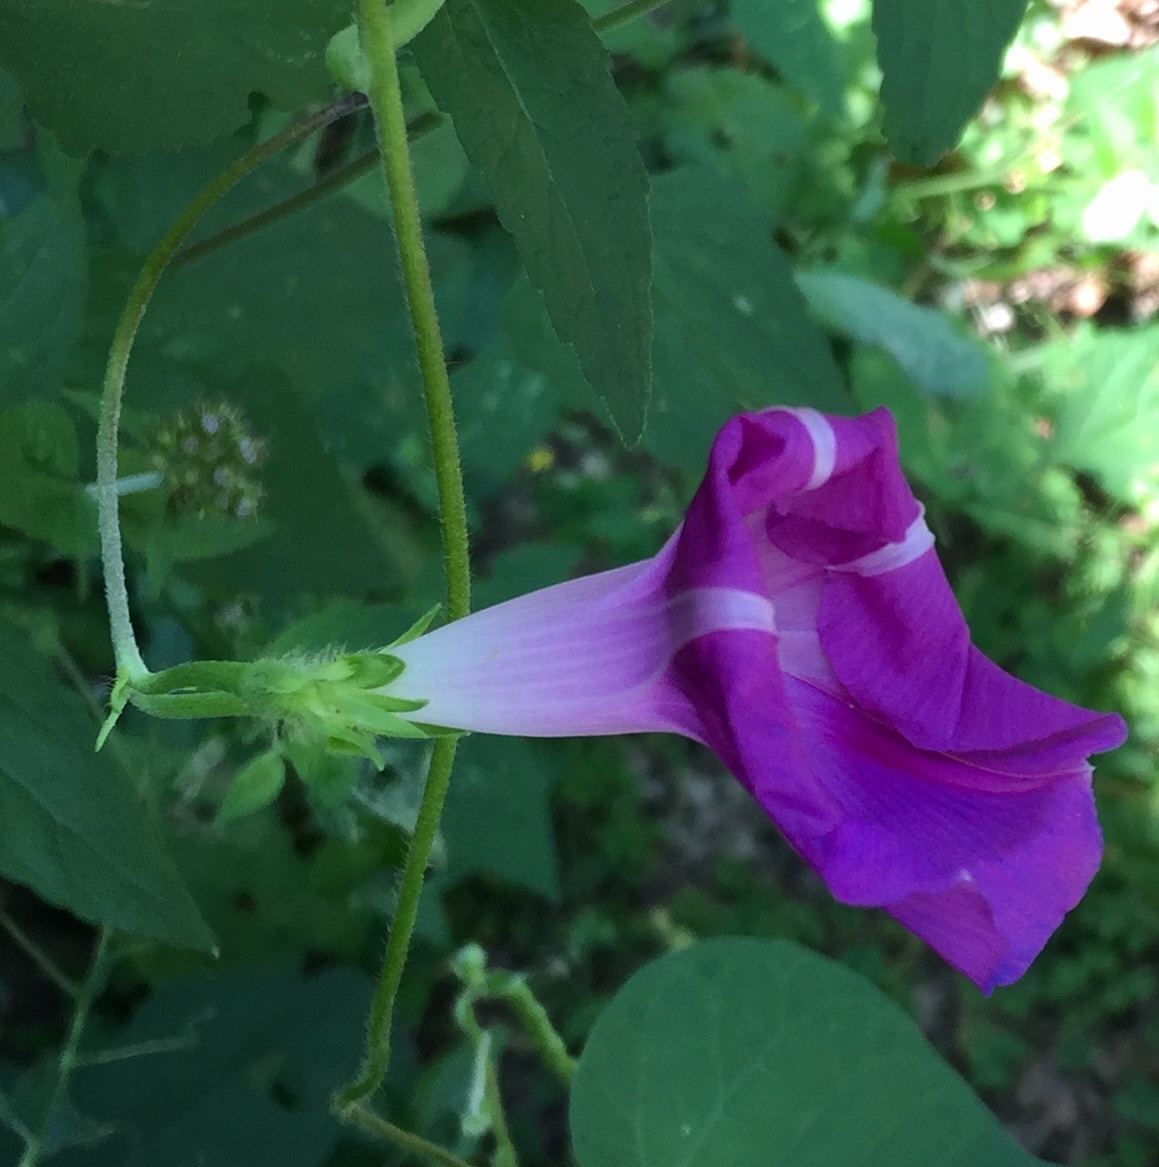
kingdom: Plantae
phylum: Tracheophyta
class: Magnoliopsida
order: Solanales
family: Convolvulaceae
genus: Ipomoea
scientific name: Ipomoea purpurea
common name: Common morning-glory
